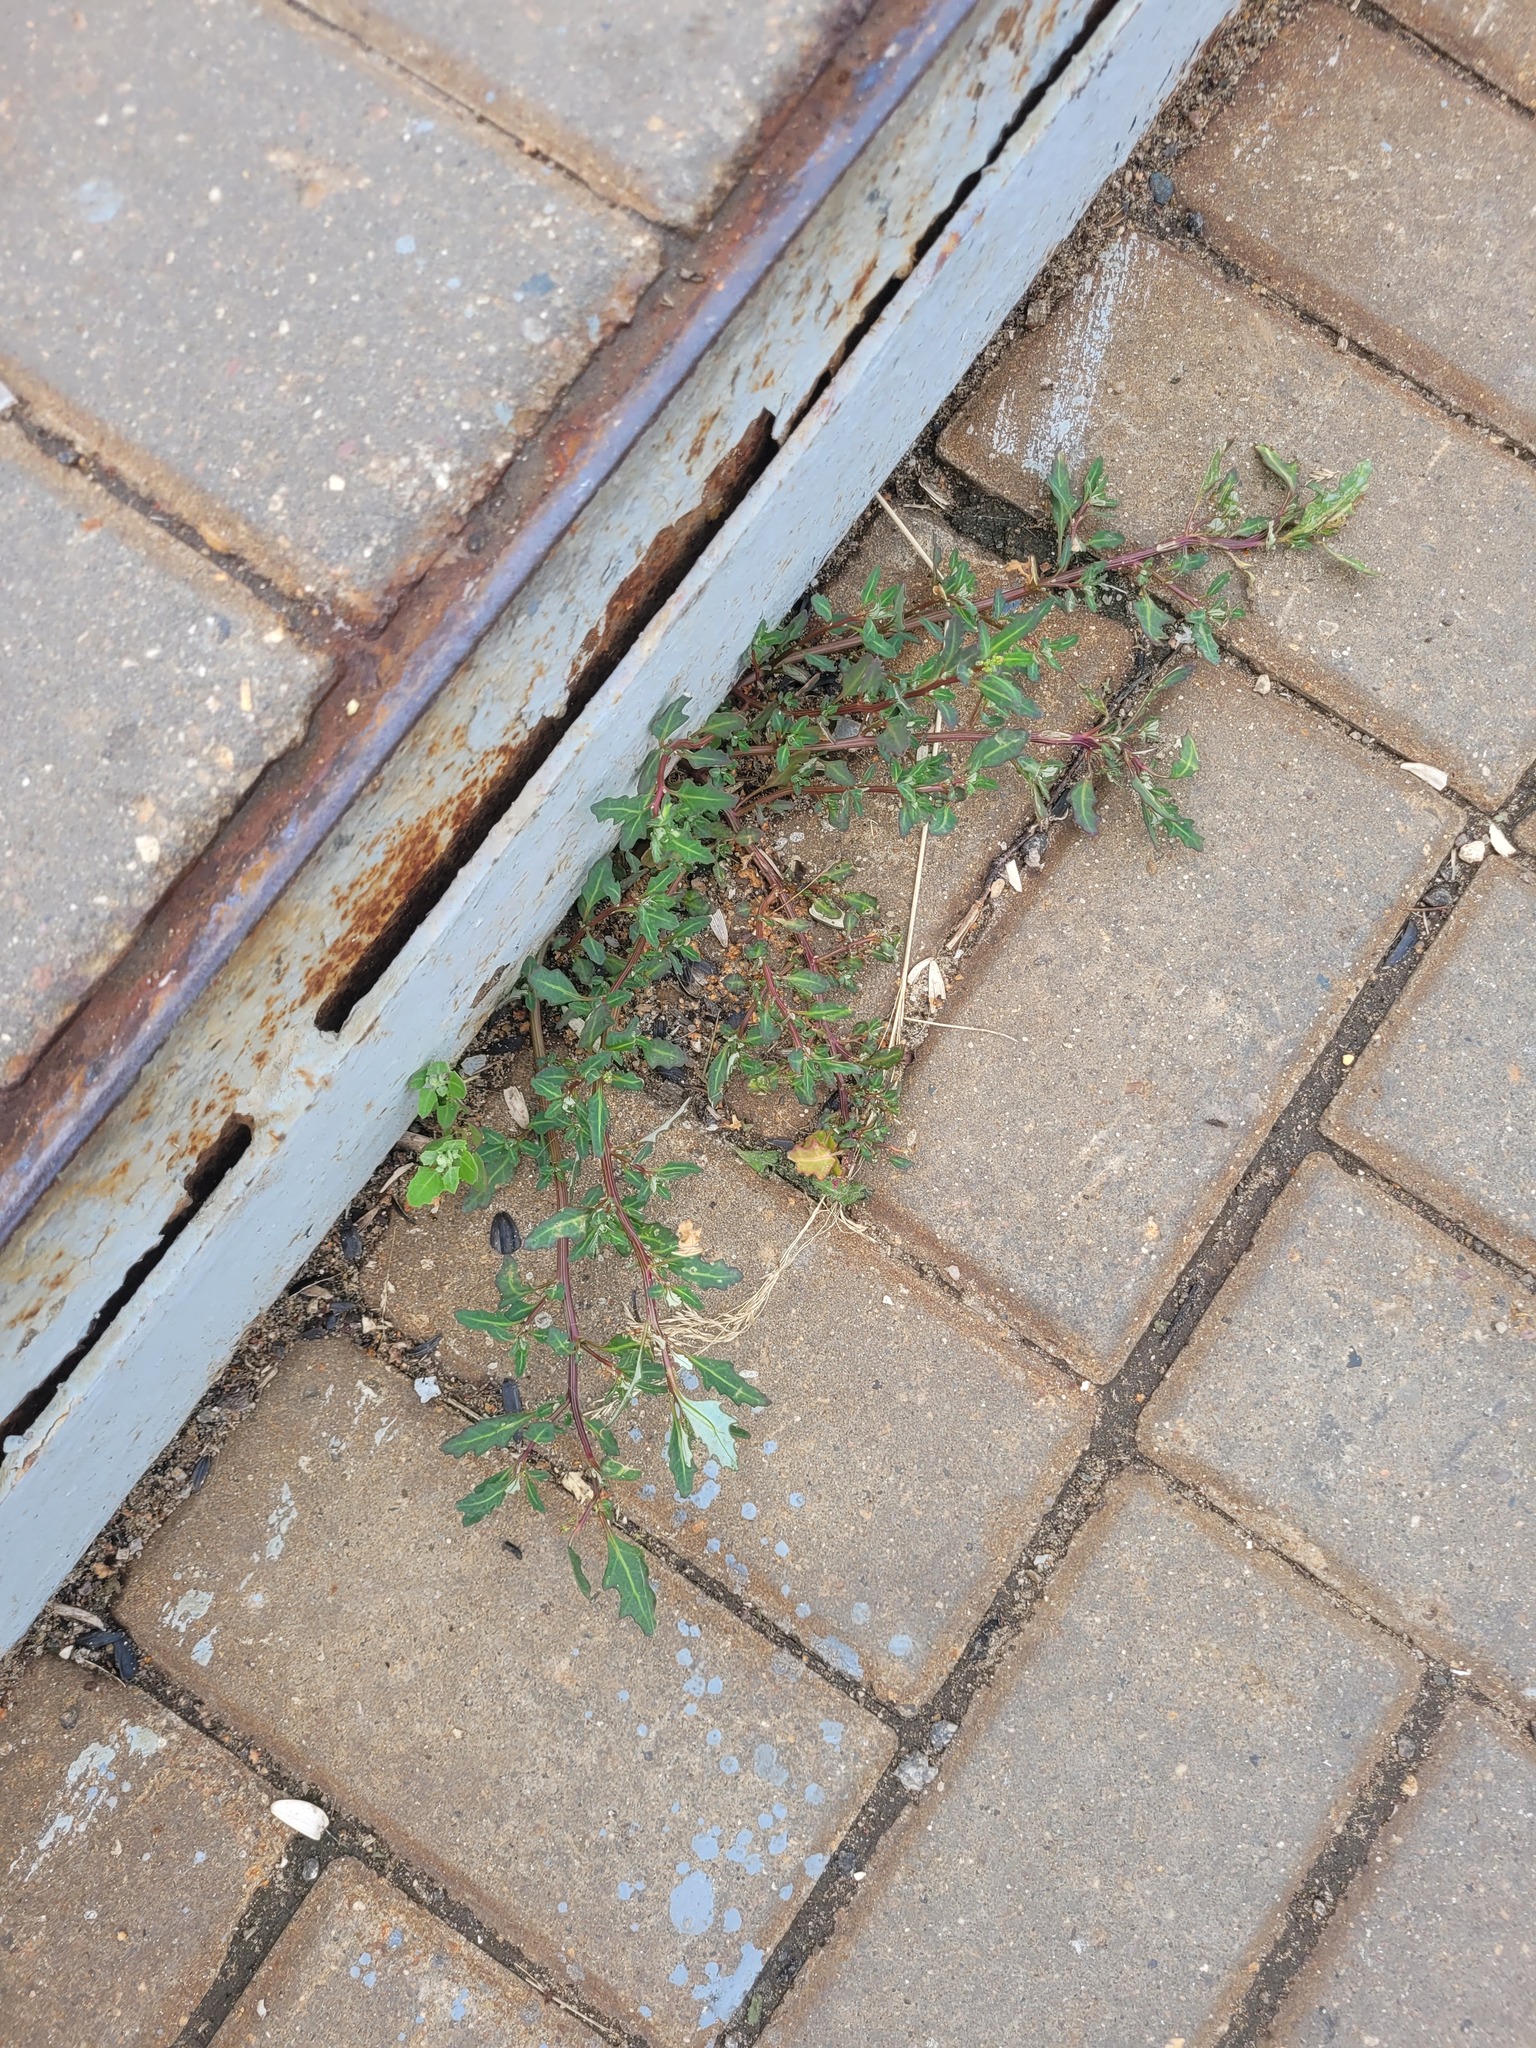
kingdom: Plantae
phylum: Tracheophyta
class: Magnoliopsida
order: Caryophyllales
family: Amaranthaceae
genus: Oxybasis
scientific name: Oxybasis glauca
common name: Glaucous goosefoot
